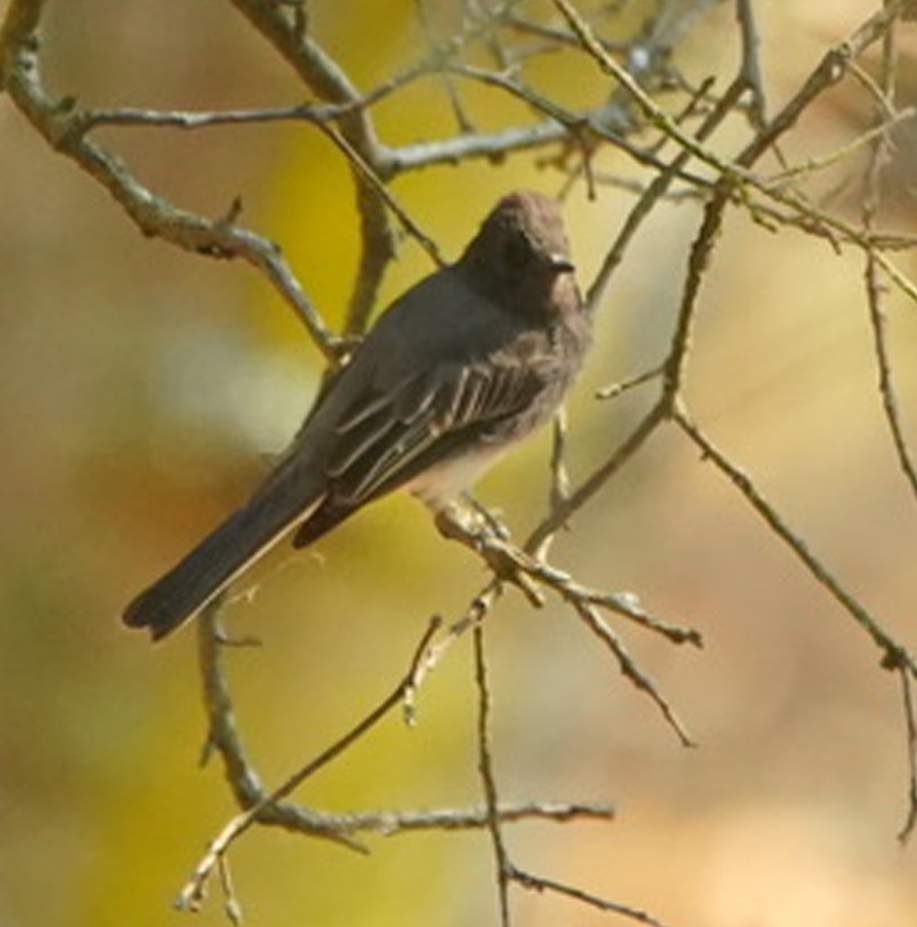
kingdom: Animalia
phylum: Chordata
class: Aves
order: Passeriformes
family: Tyrannidae
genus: Sayornis
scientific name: Sayornis nigricans
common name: Black phoebe
